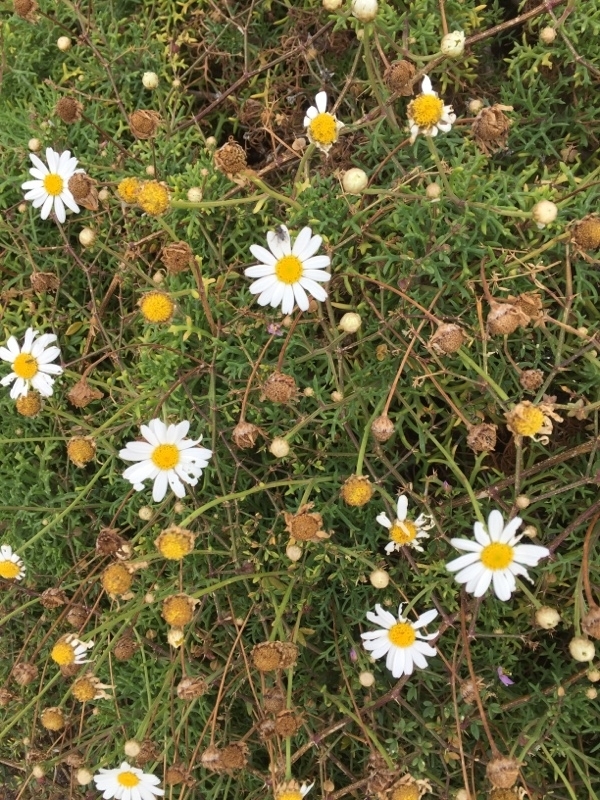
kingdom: Plantae
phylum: Tracheophyta
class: Magnoliopsida
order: Asterales
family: Asteraceae
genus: Argyranthemum
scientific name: Argyranthemum frutescens
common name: Paris daisy
